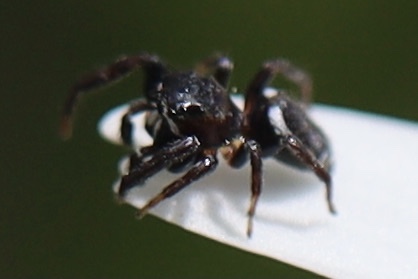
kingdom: Animalia
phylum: Arthropoda
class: Arachnida
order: Araneae
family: Salticidae
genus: Metaphidippus
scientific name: Metaphidippus manni
